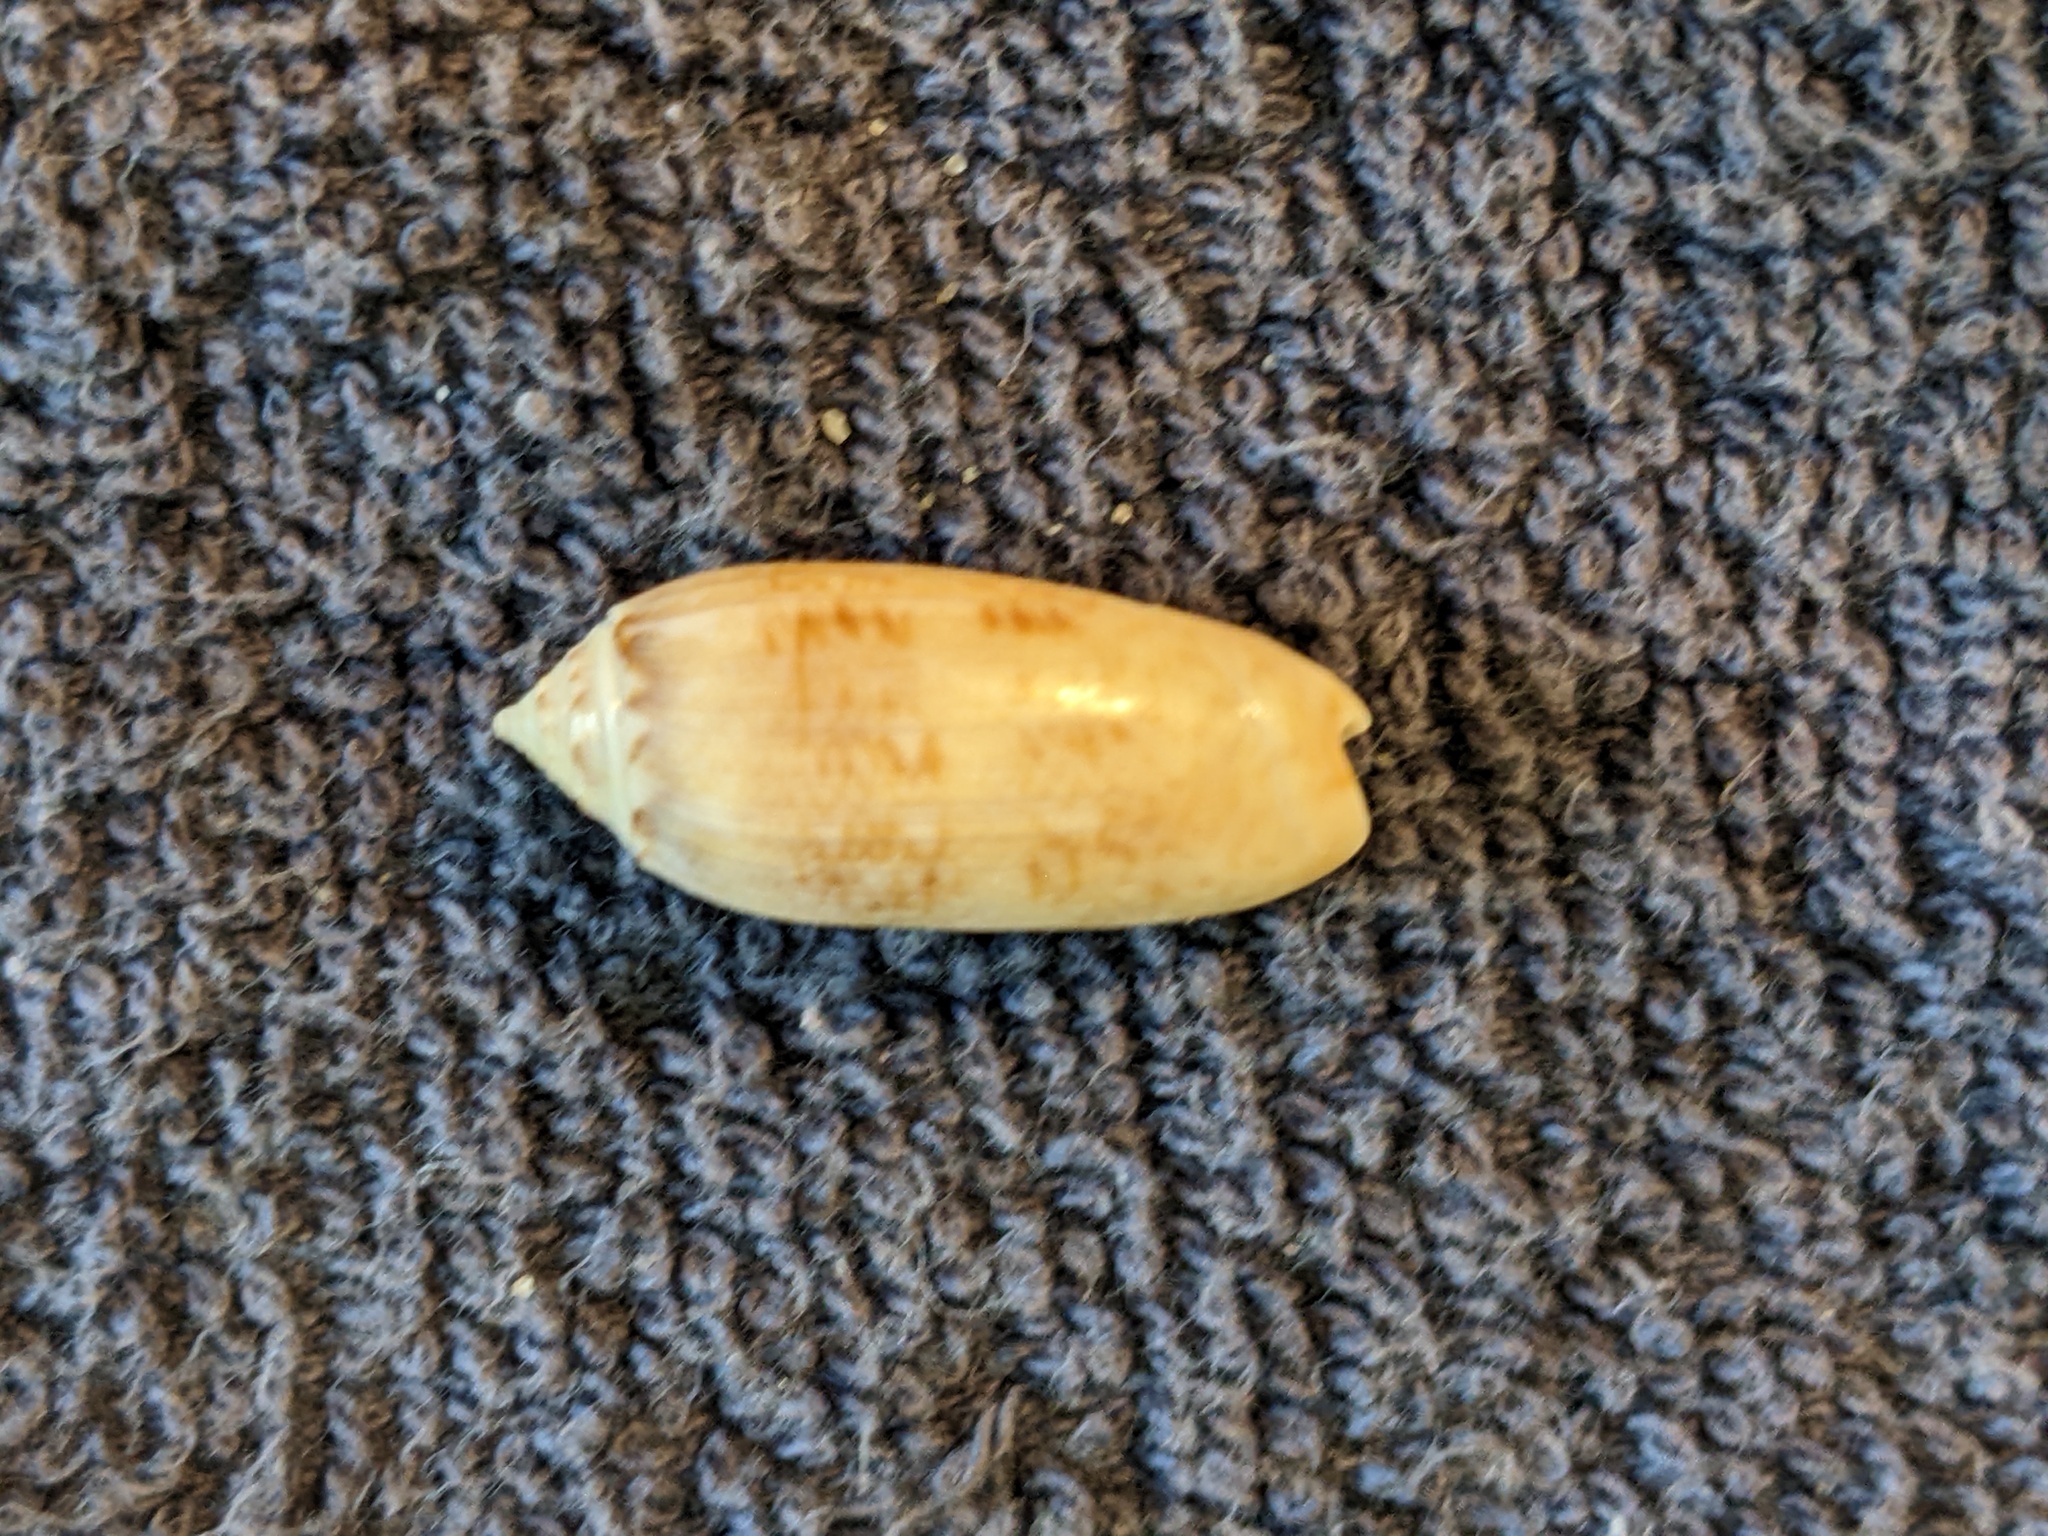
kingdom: Animalia
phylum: Mollusca
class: Gastropoda
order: Neogastropoda
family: Olividae
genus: Oliva
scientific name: Oliva sayana
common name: Lettered olive
